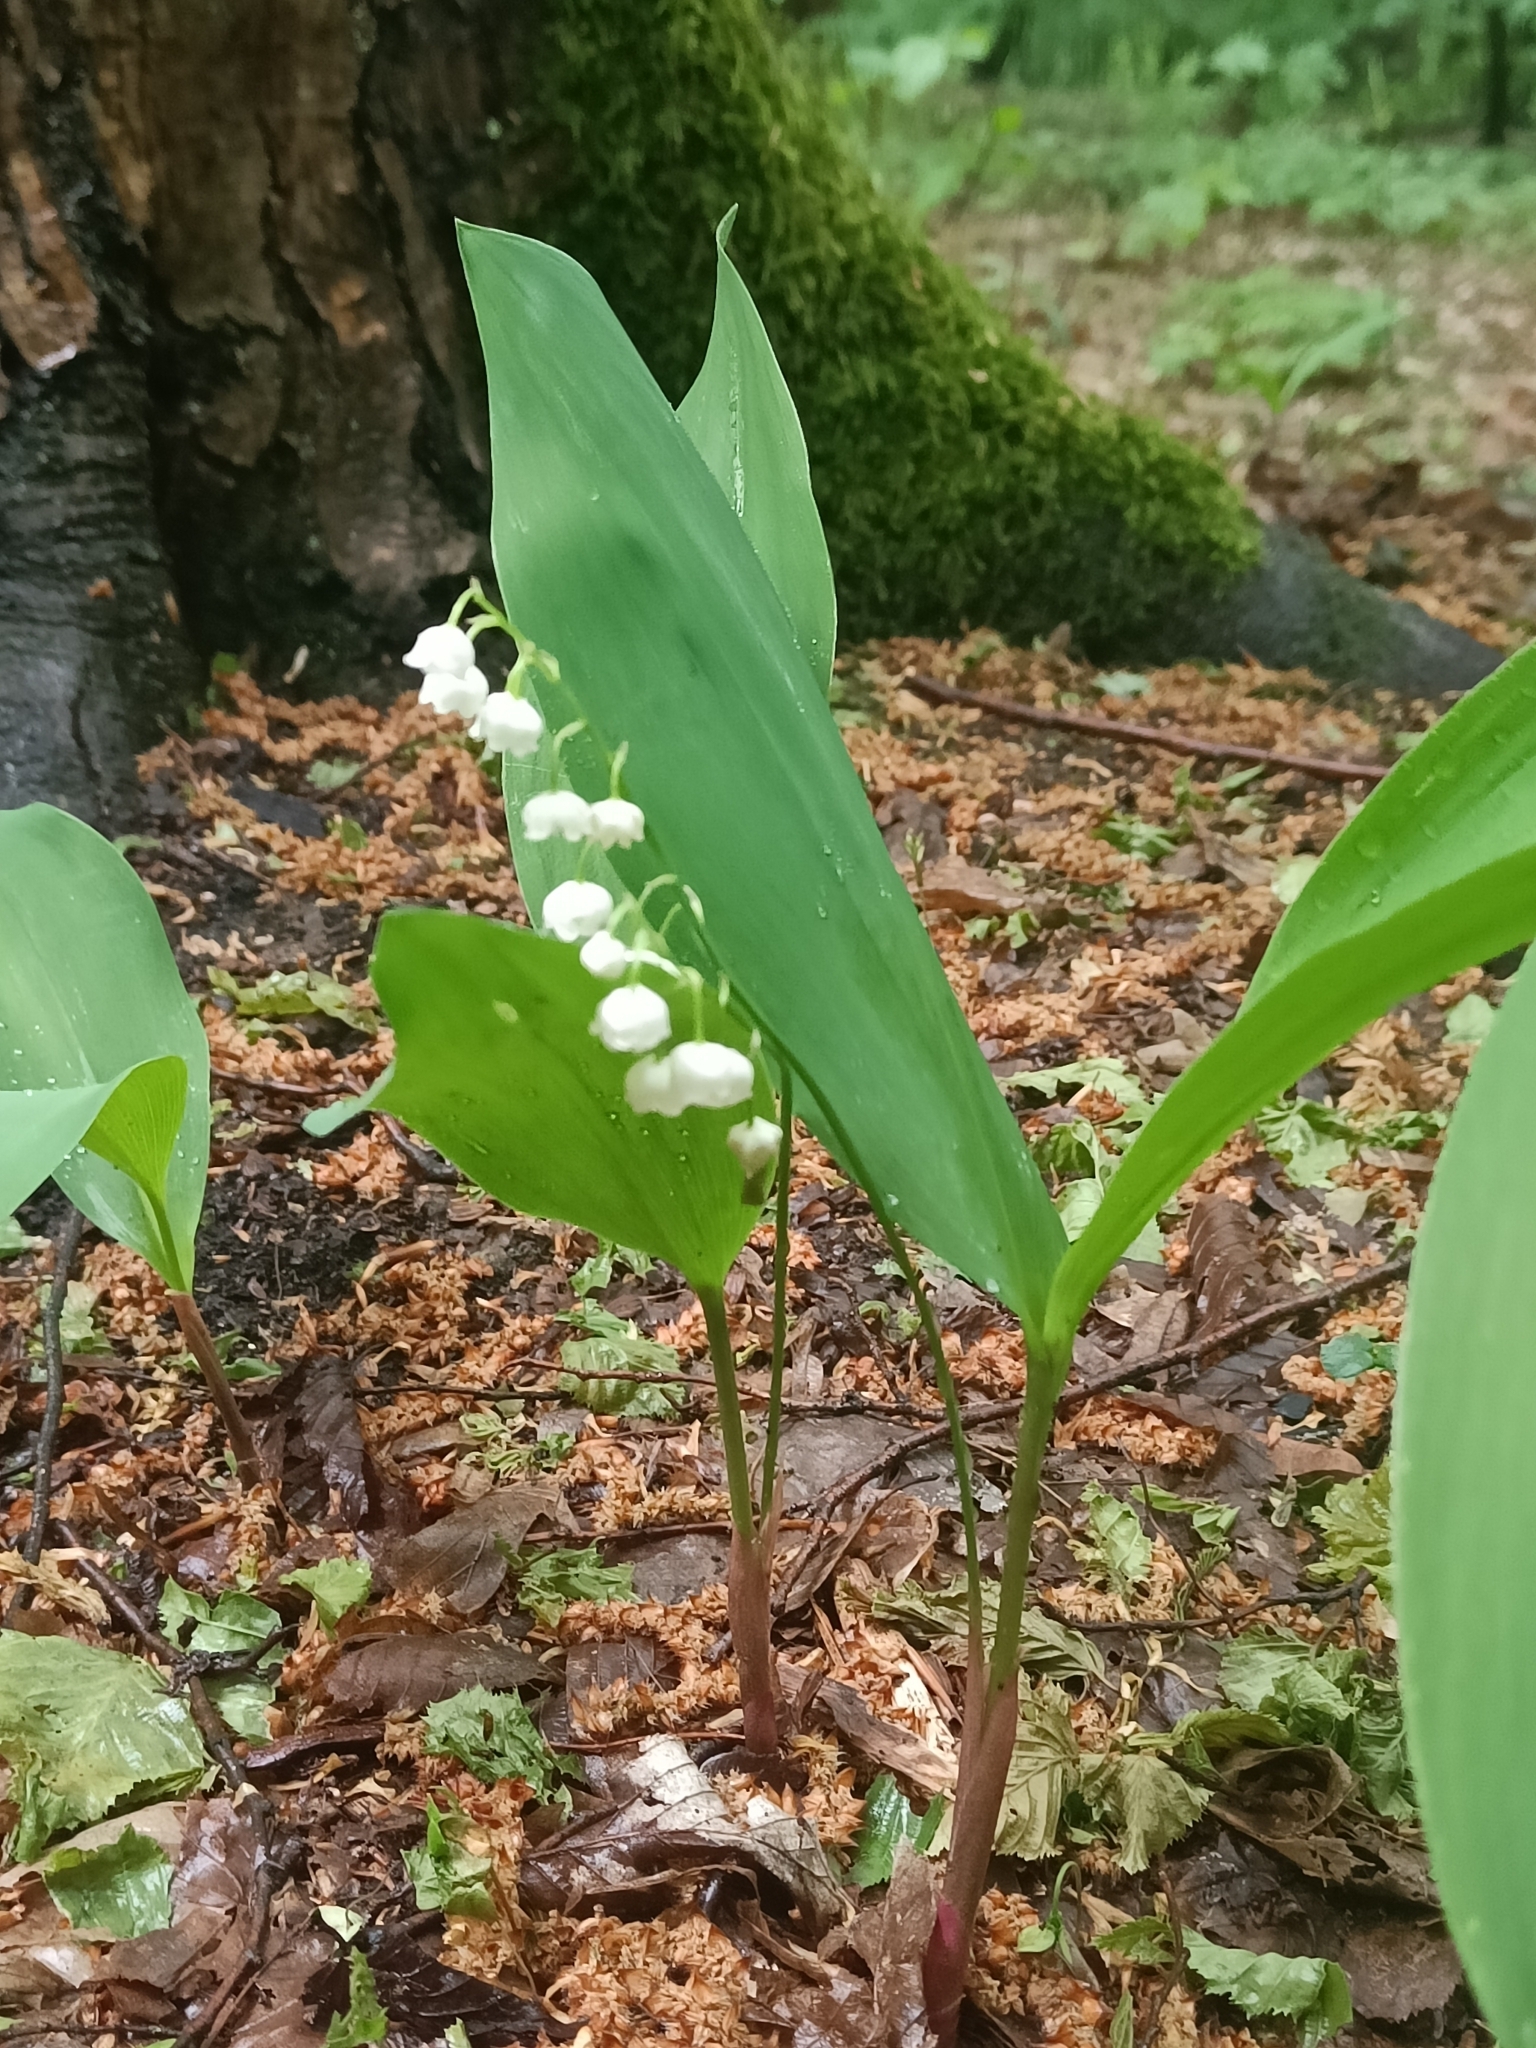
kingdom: Plantae
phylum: Tracheophyta
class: Liliopsida
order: Asparagales
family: Asparagaceae
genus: Convallaria
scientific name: Convallaria majalis
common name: Lily-of-the-valley
